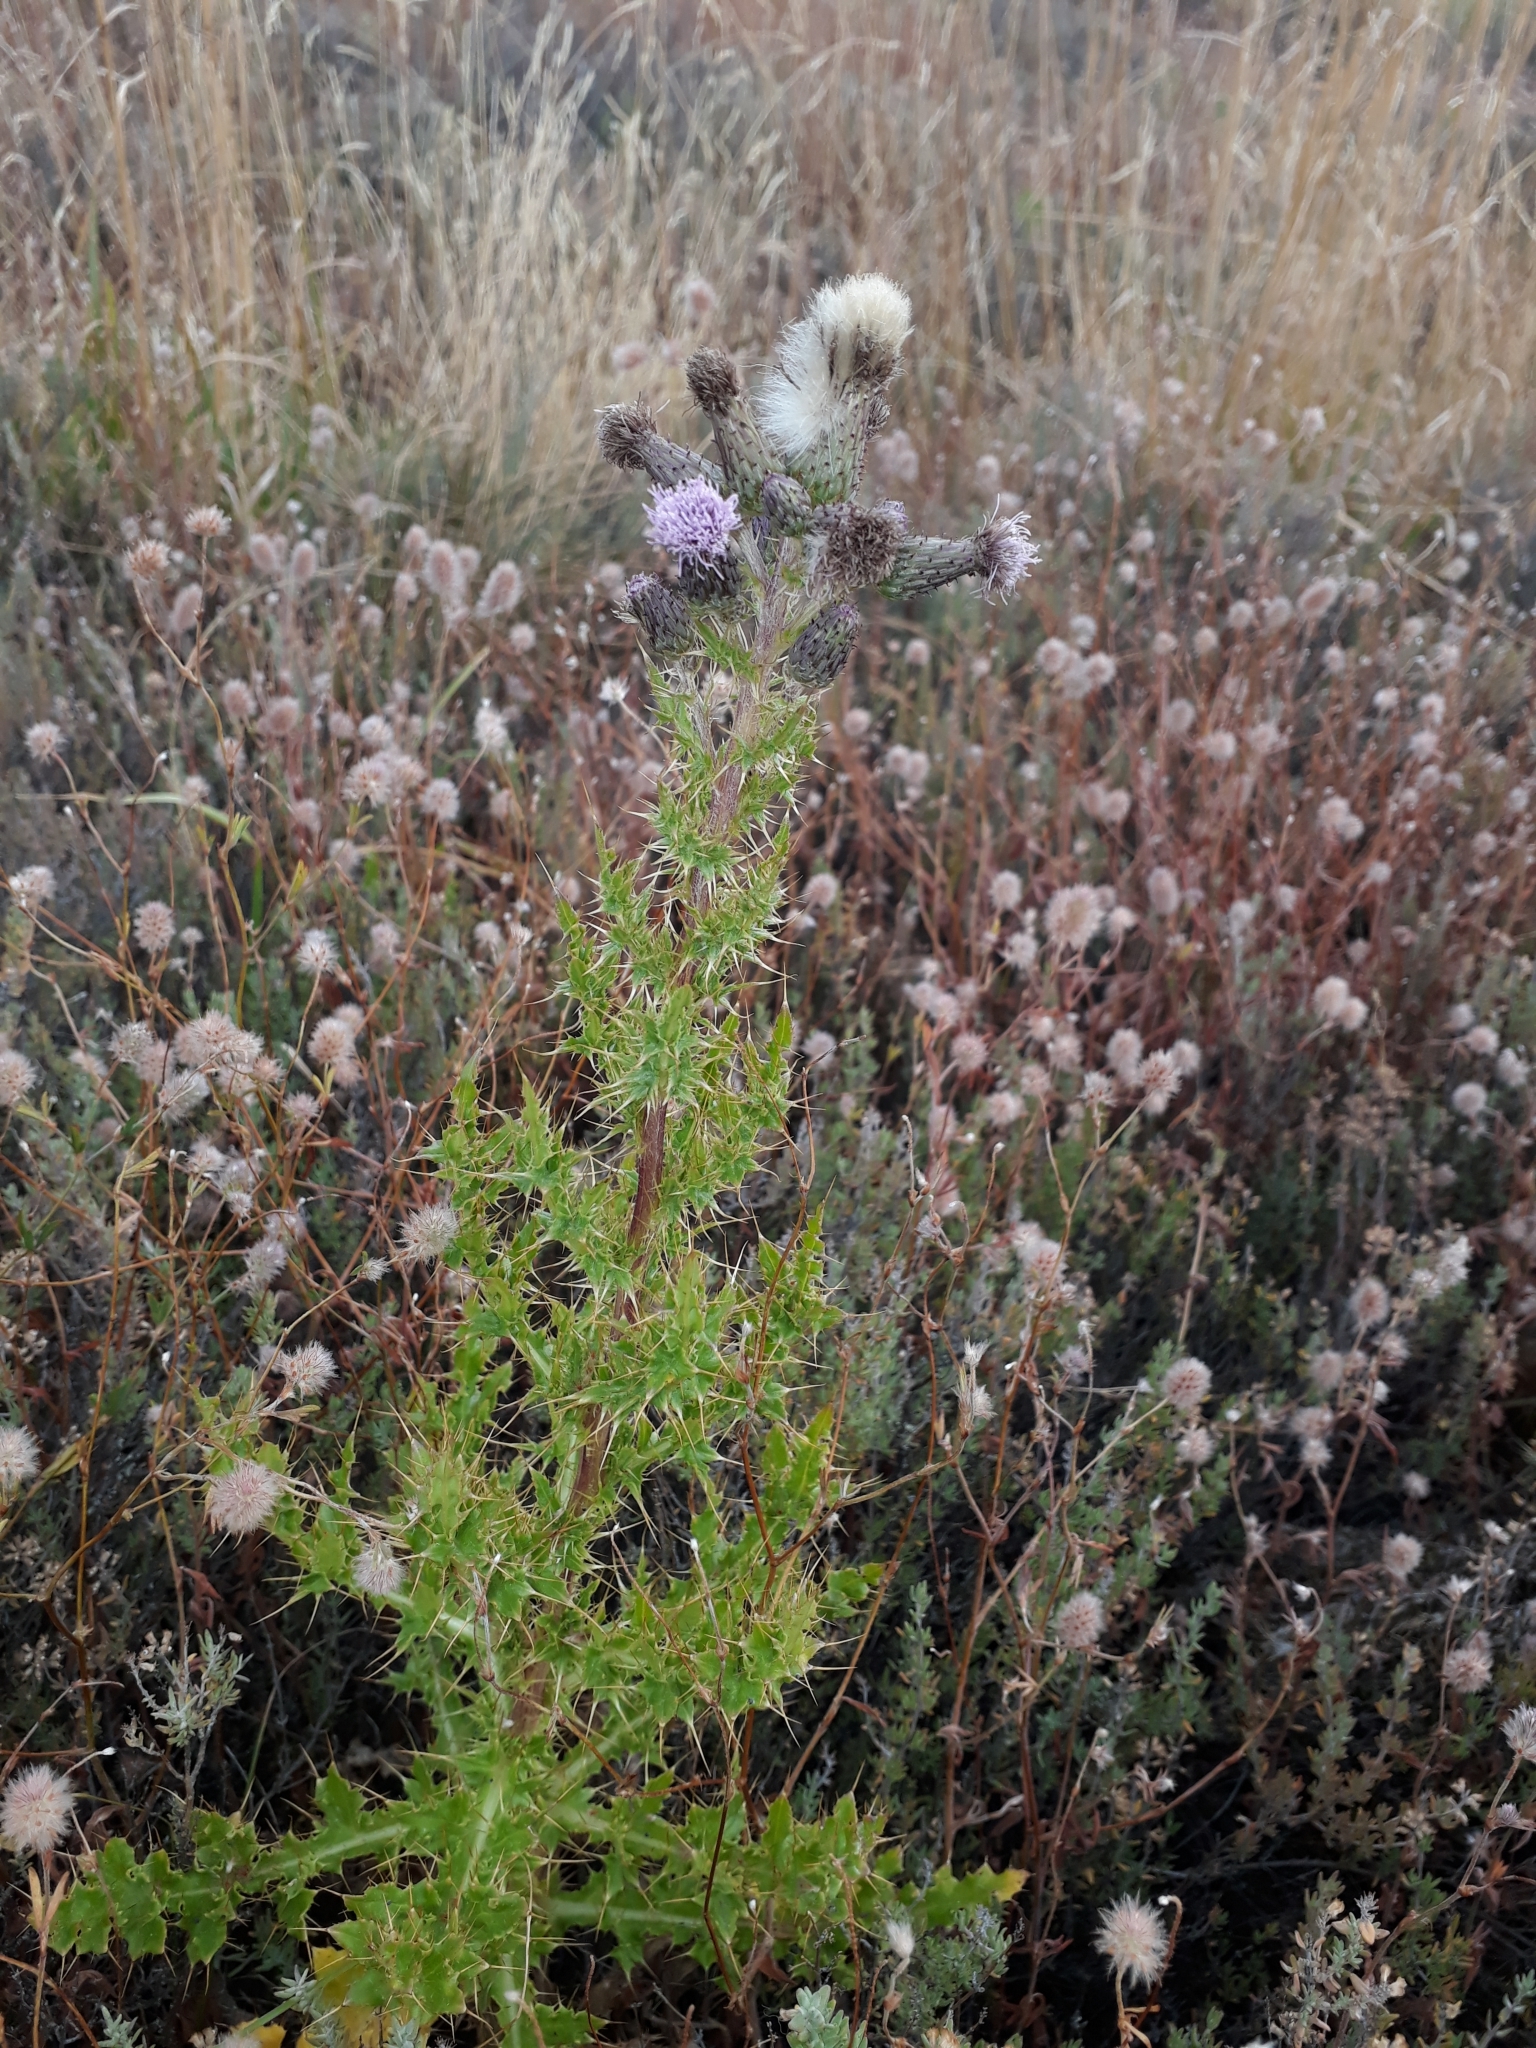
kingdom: Plantae
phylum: Tracheophyta
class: Magnoliopsida
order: Asterales
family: Asteraceae
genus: Cirsium
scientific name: Cirsium arvense
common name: Creeping thistle
